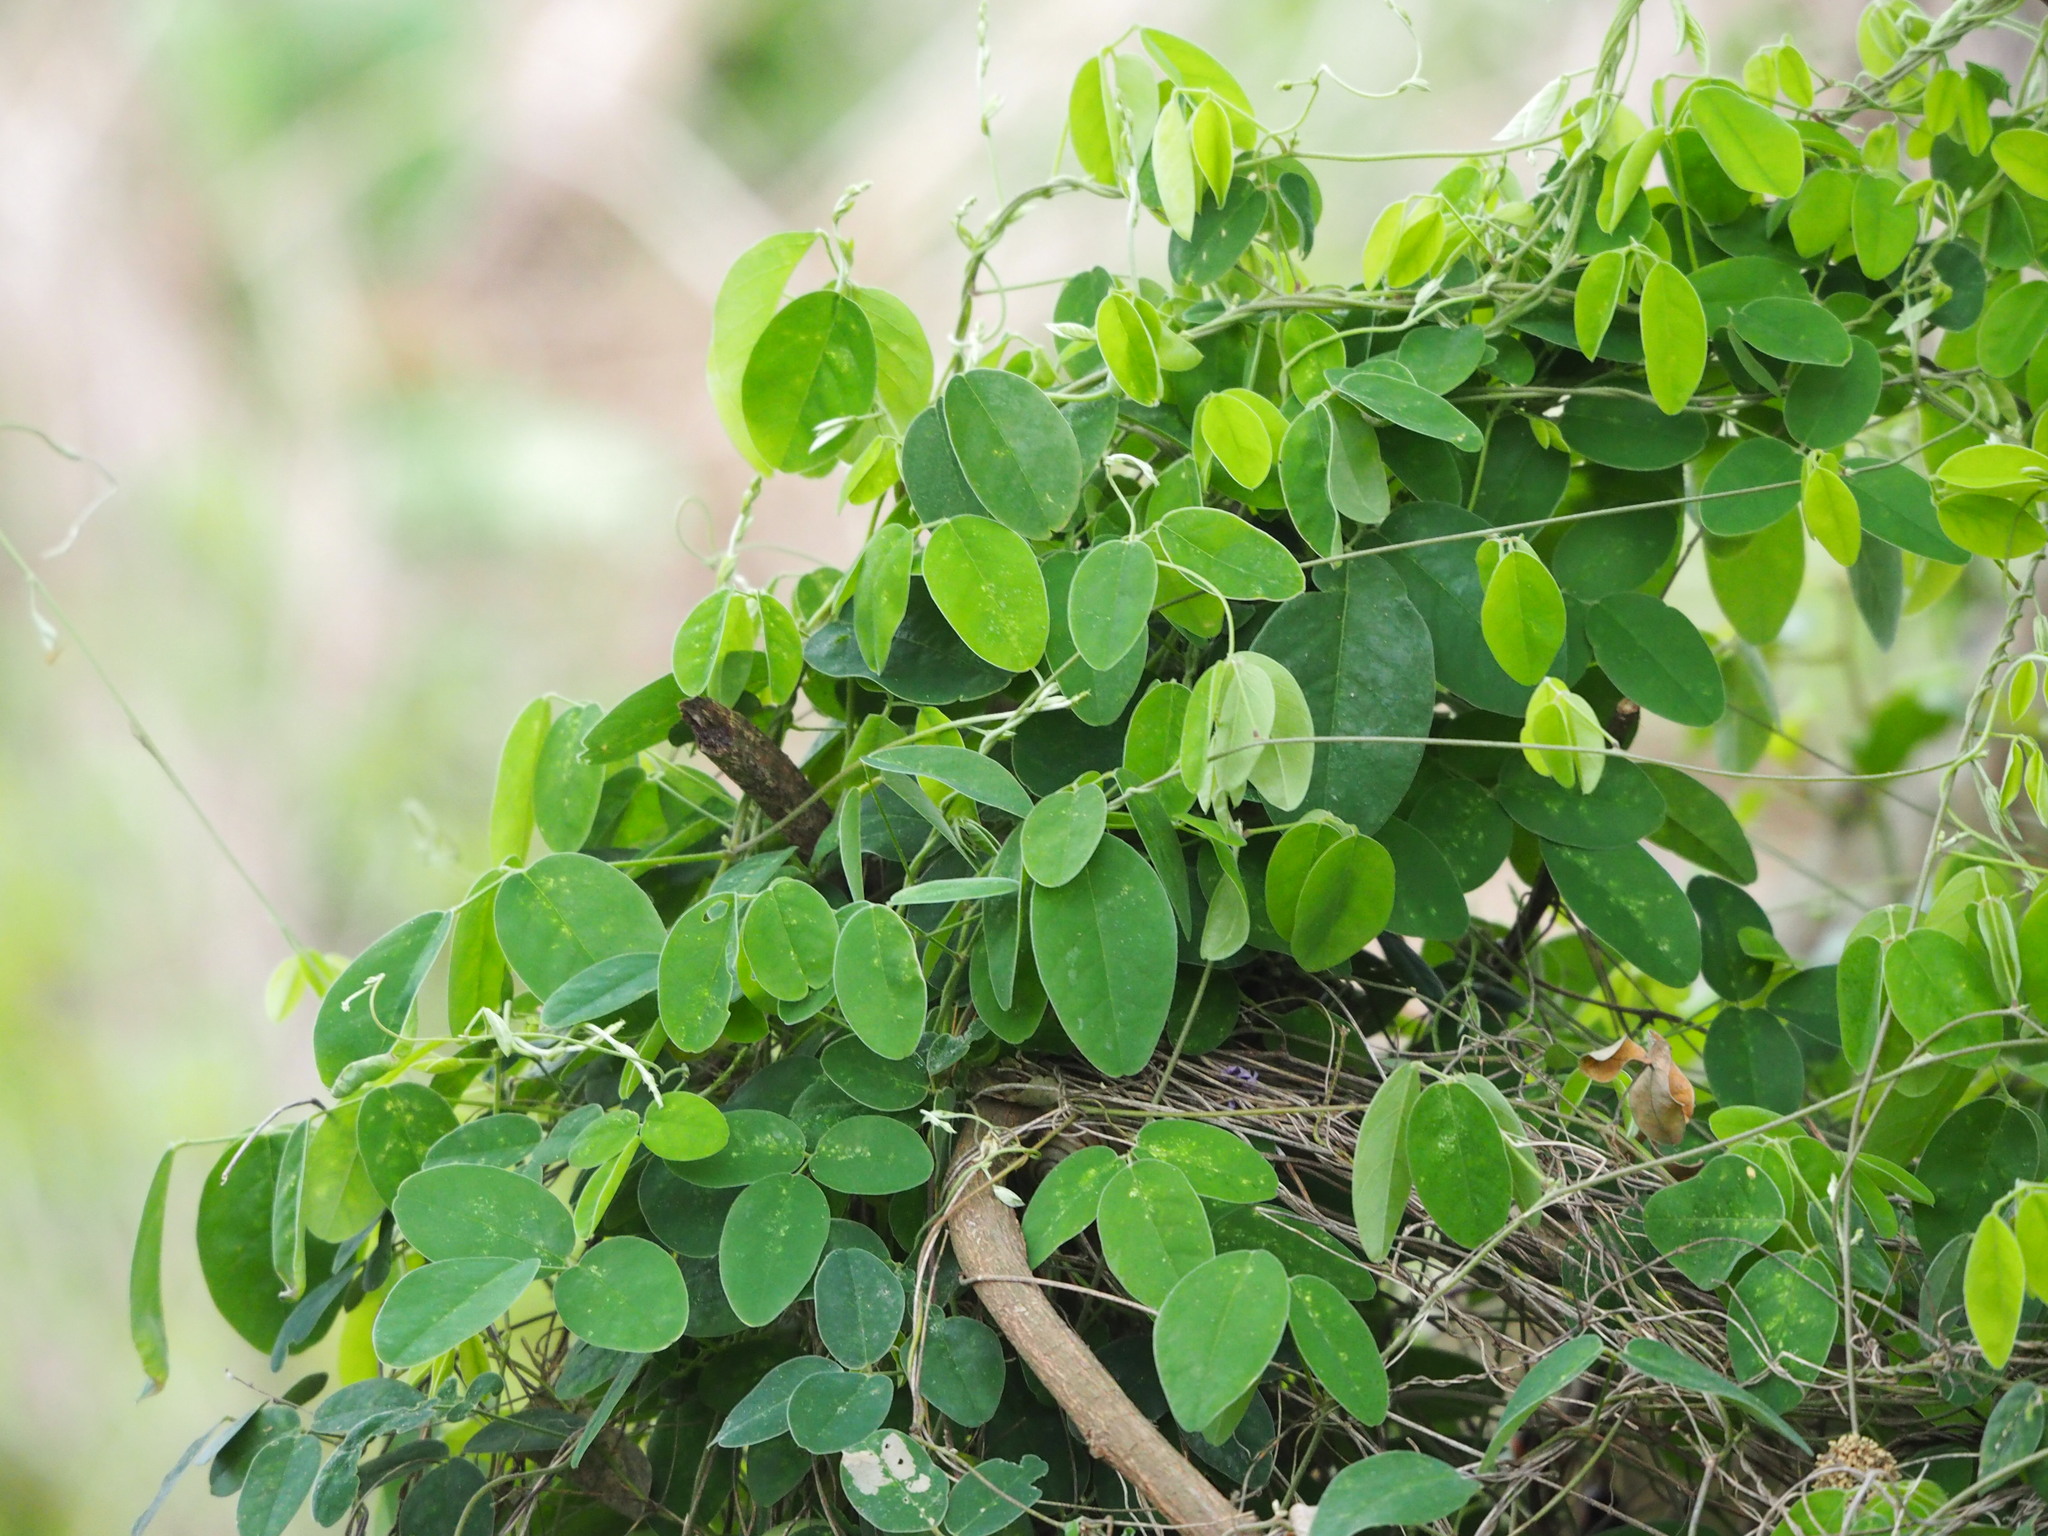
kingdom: Plantae
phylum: Tracheophyta
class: Magnoliopsida
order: Fabales
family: Fabaceae
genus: Galactia
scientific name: Galactia tashiroi
